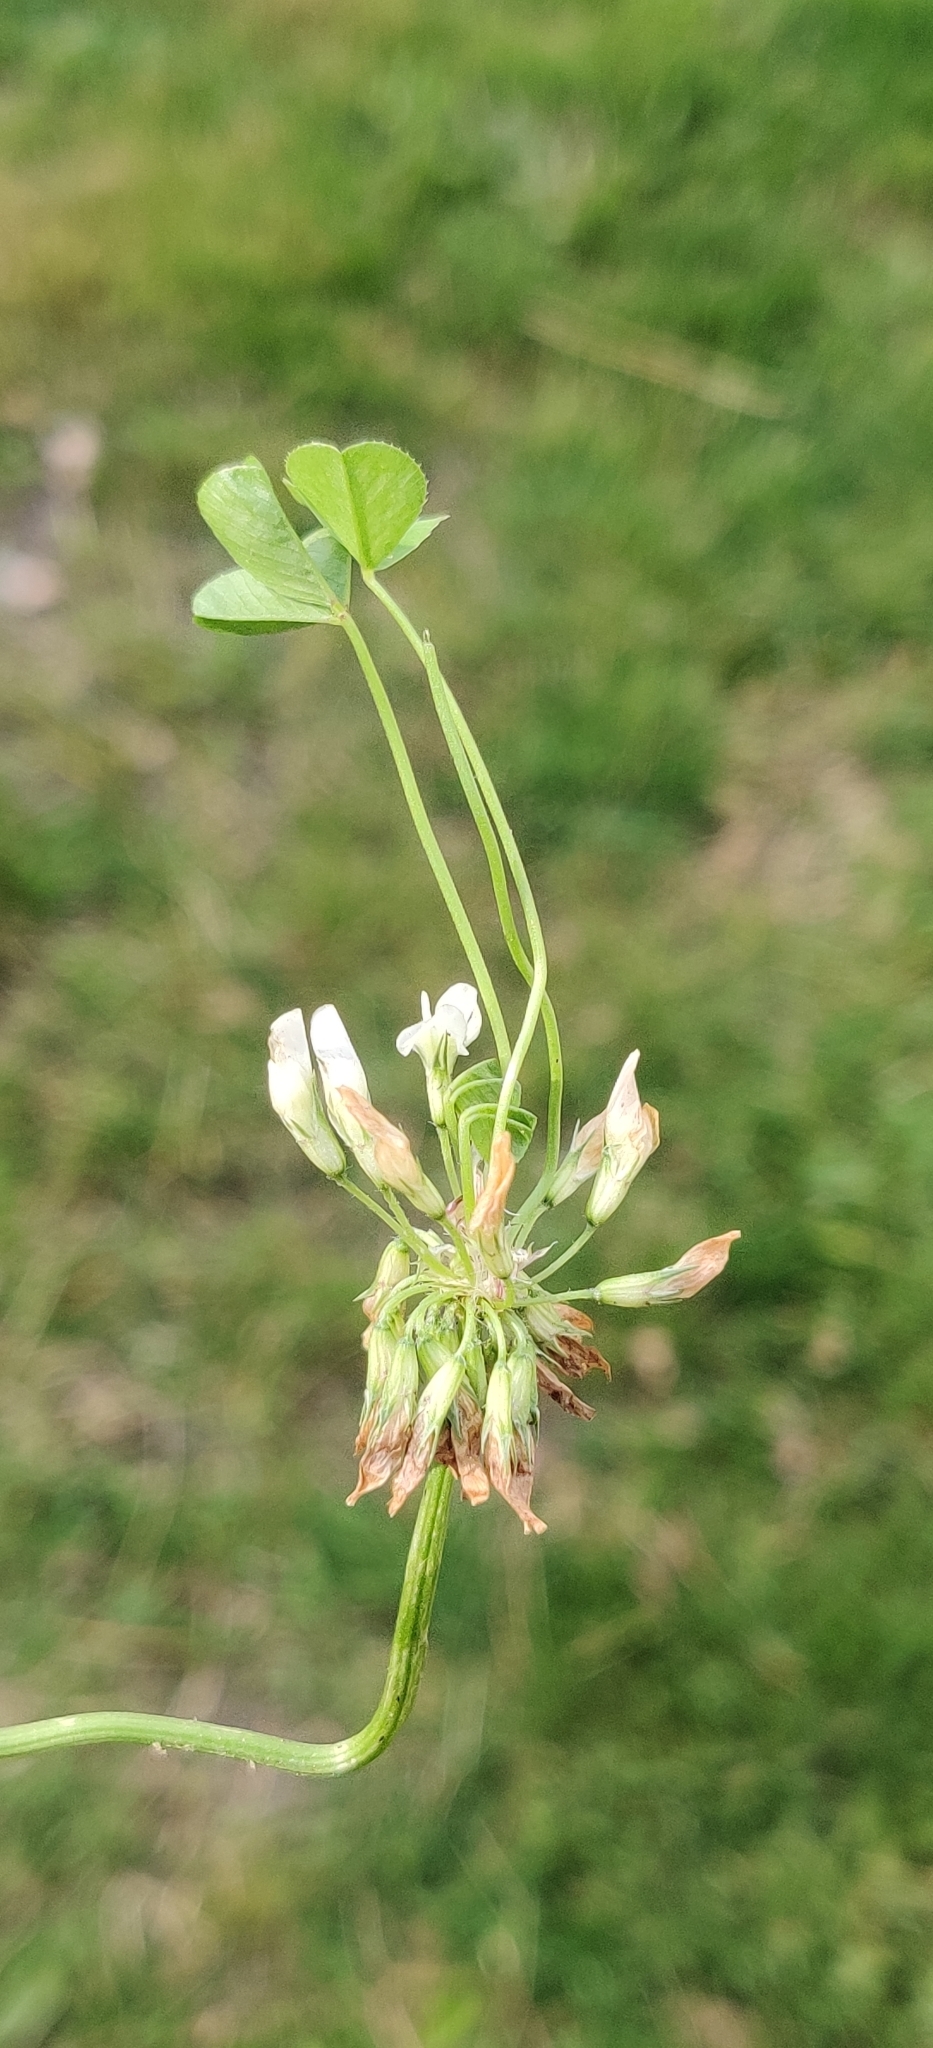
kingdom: Plantae
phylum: Tracheophyta
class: Magnoliopsida
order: Fabales
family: Fabaceae
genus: Trifolium
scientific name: Trifolium repens
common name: White clover
